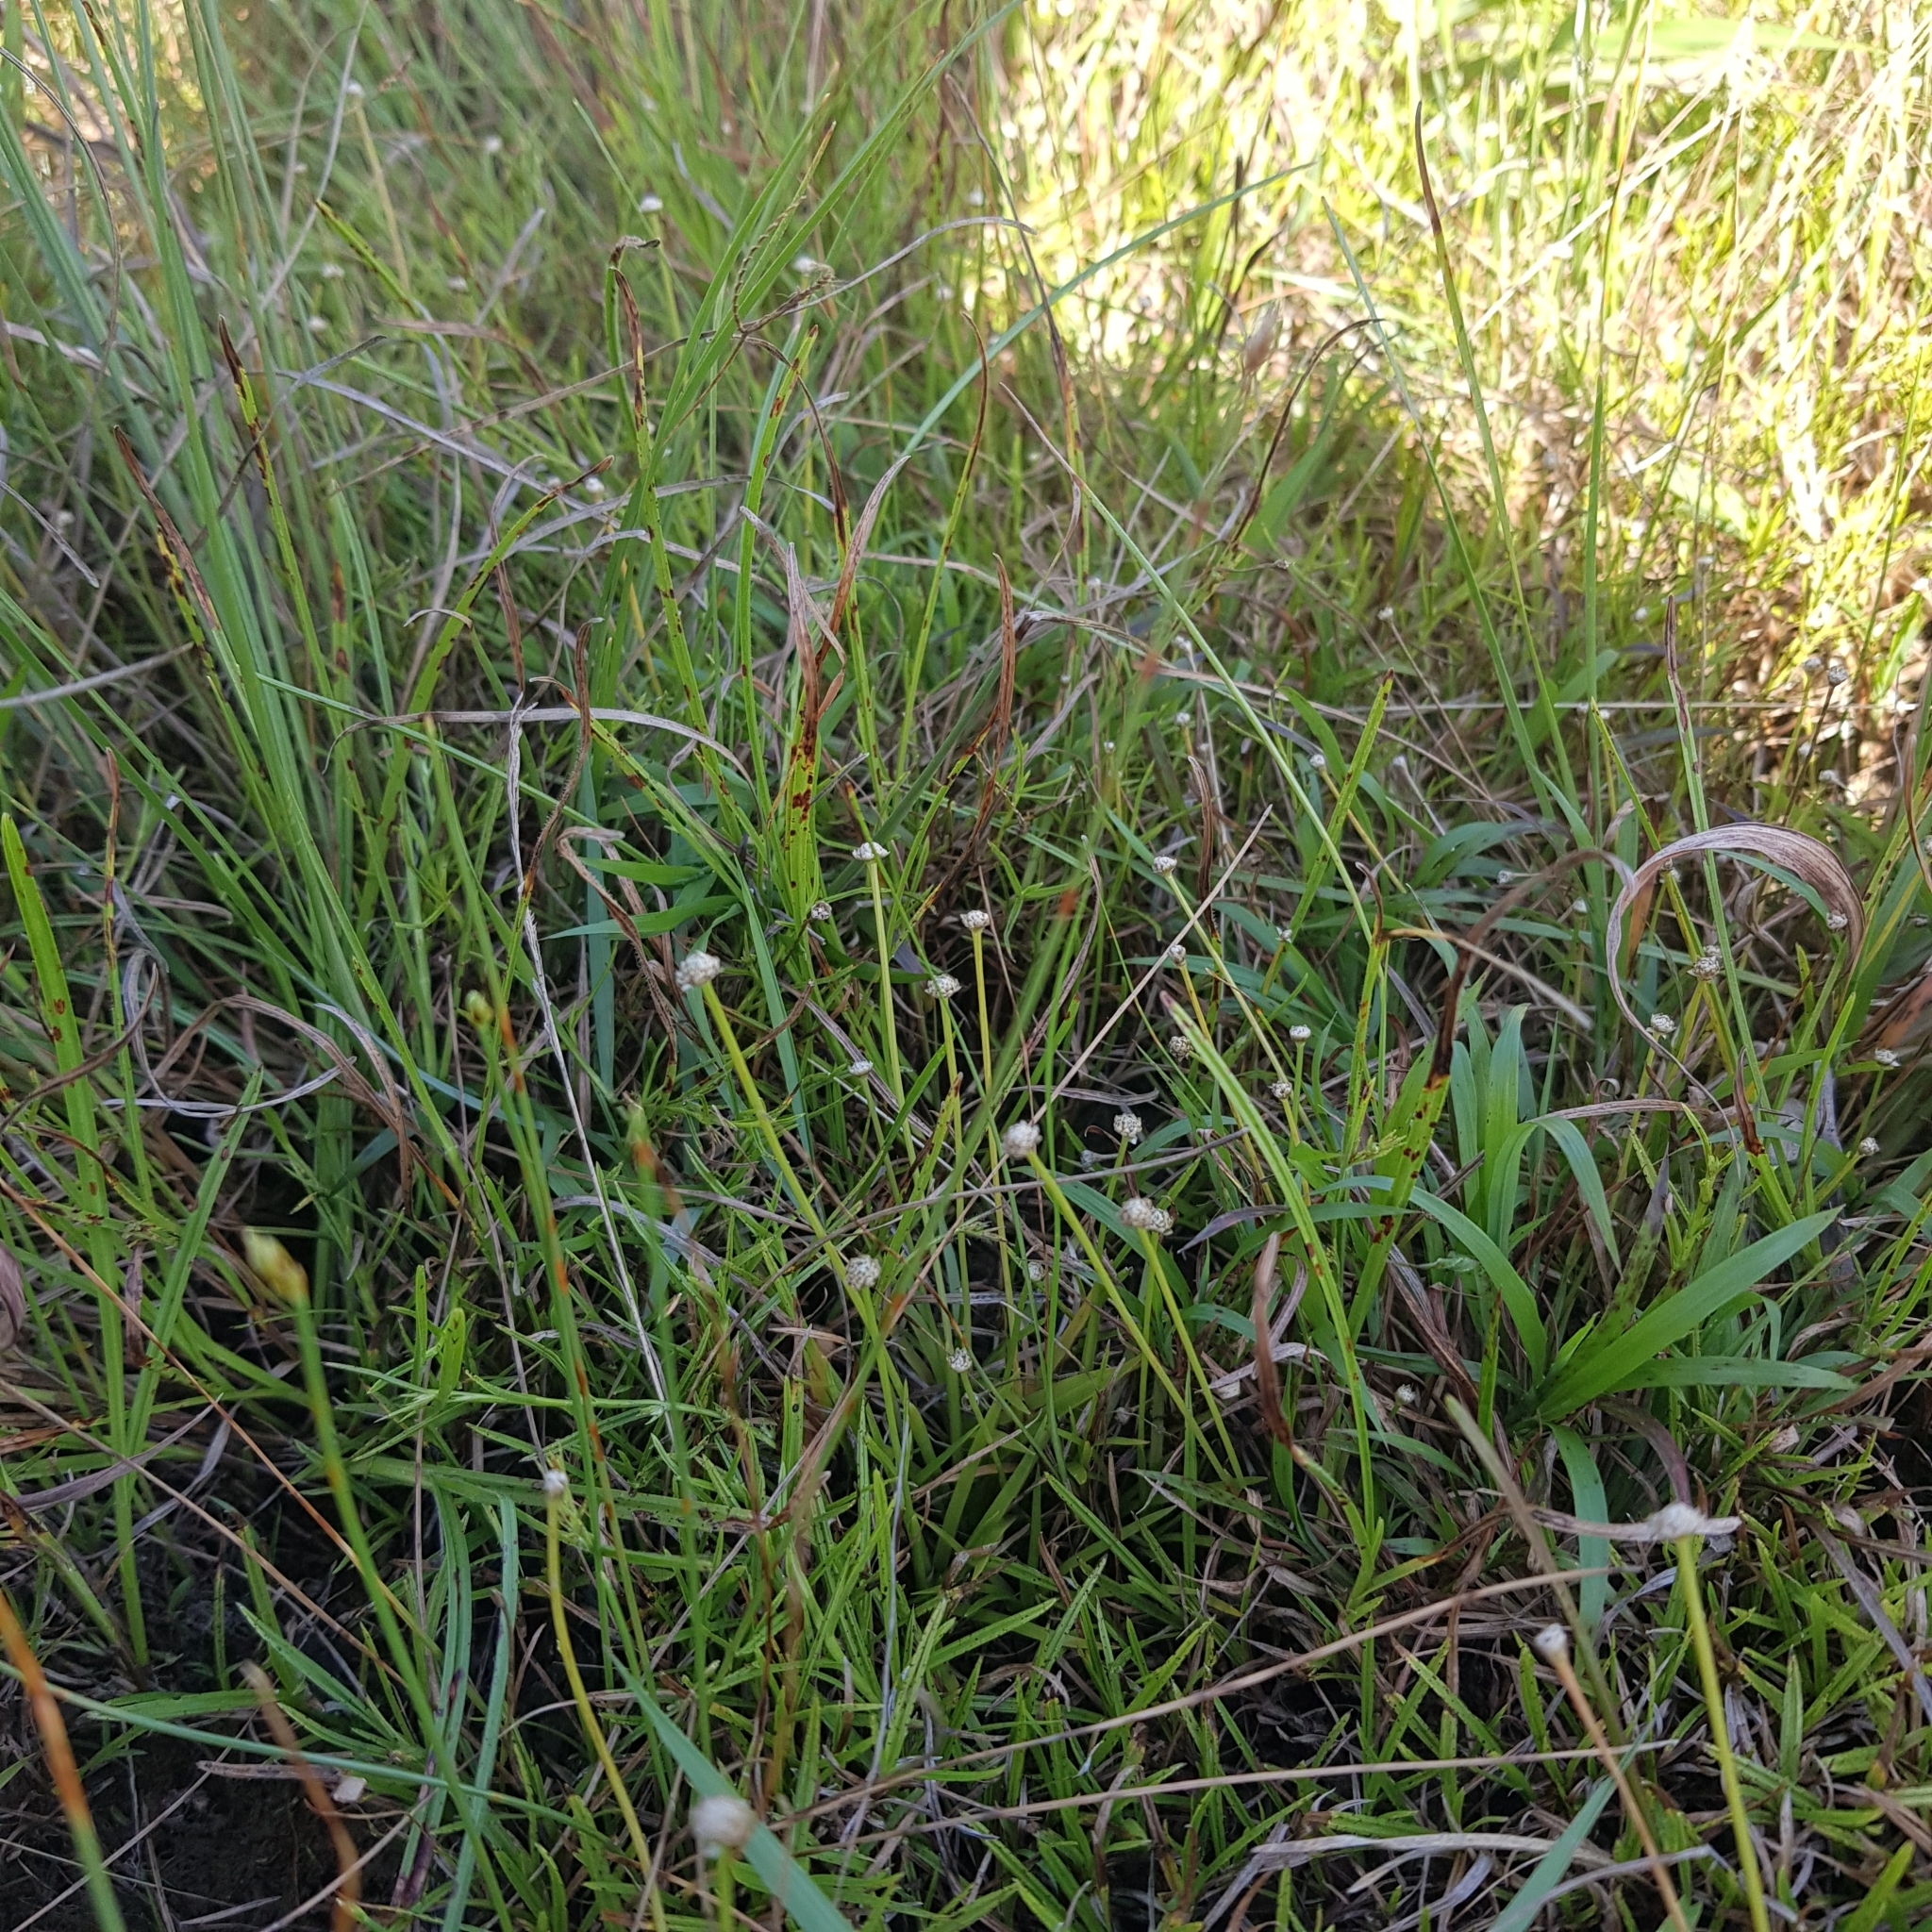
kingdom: Plantae
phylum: Tracheophyta
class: Liliopsida
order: Poales
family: Eriocaulaceae
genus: Eriocaulon
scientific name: Eriocaulon truncatum
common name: Short pipe-wort
